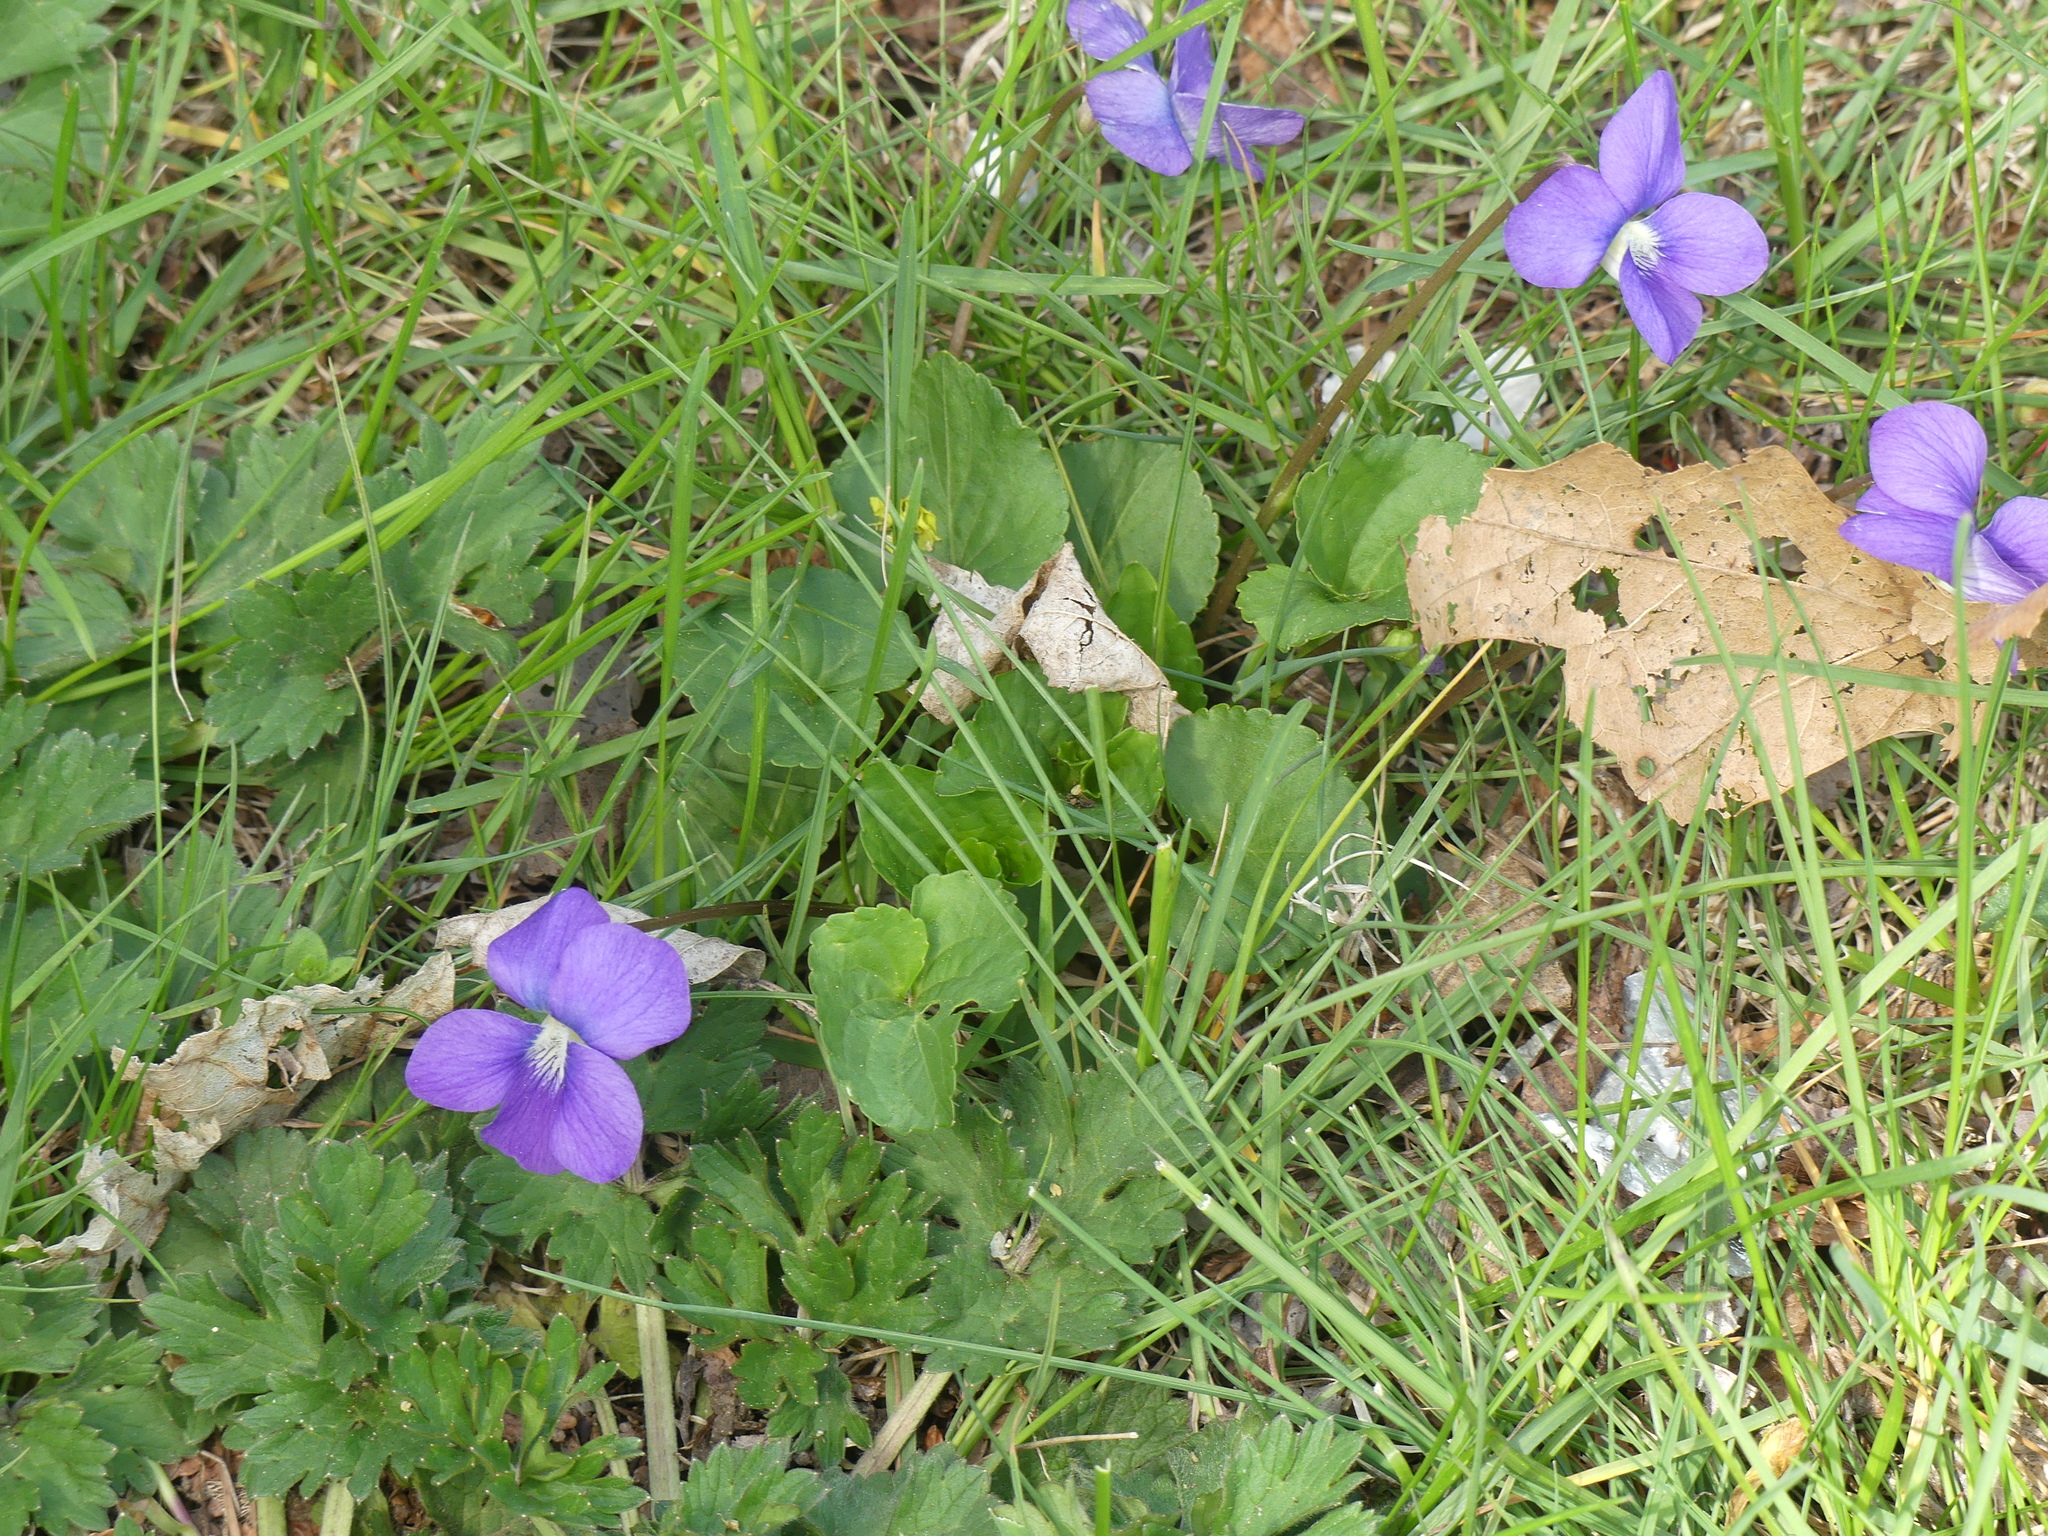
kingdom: Plantae
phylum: Tracheophyta
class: Magnoliopsida
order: Malpighiales
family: Violaceae
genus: Viola
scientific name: Viola sororia
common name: Dooryard violet
